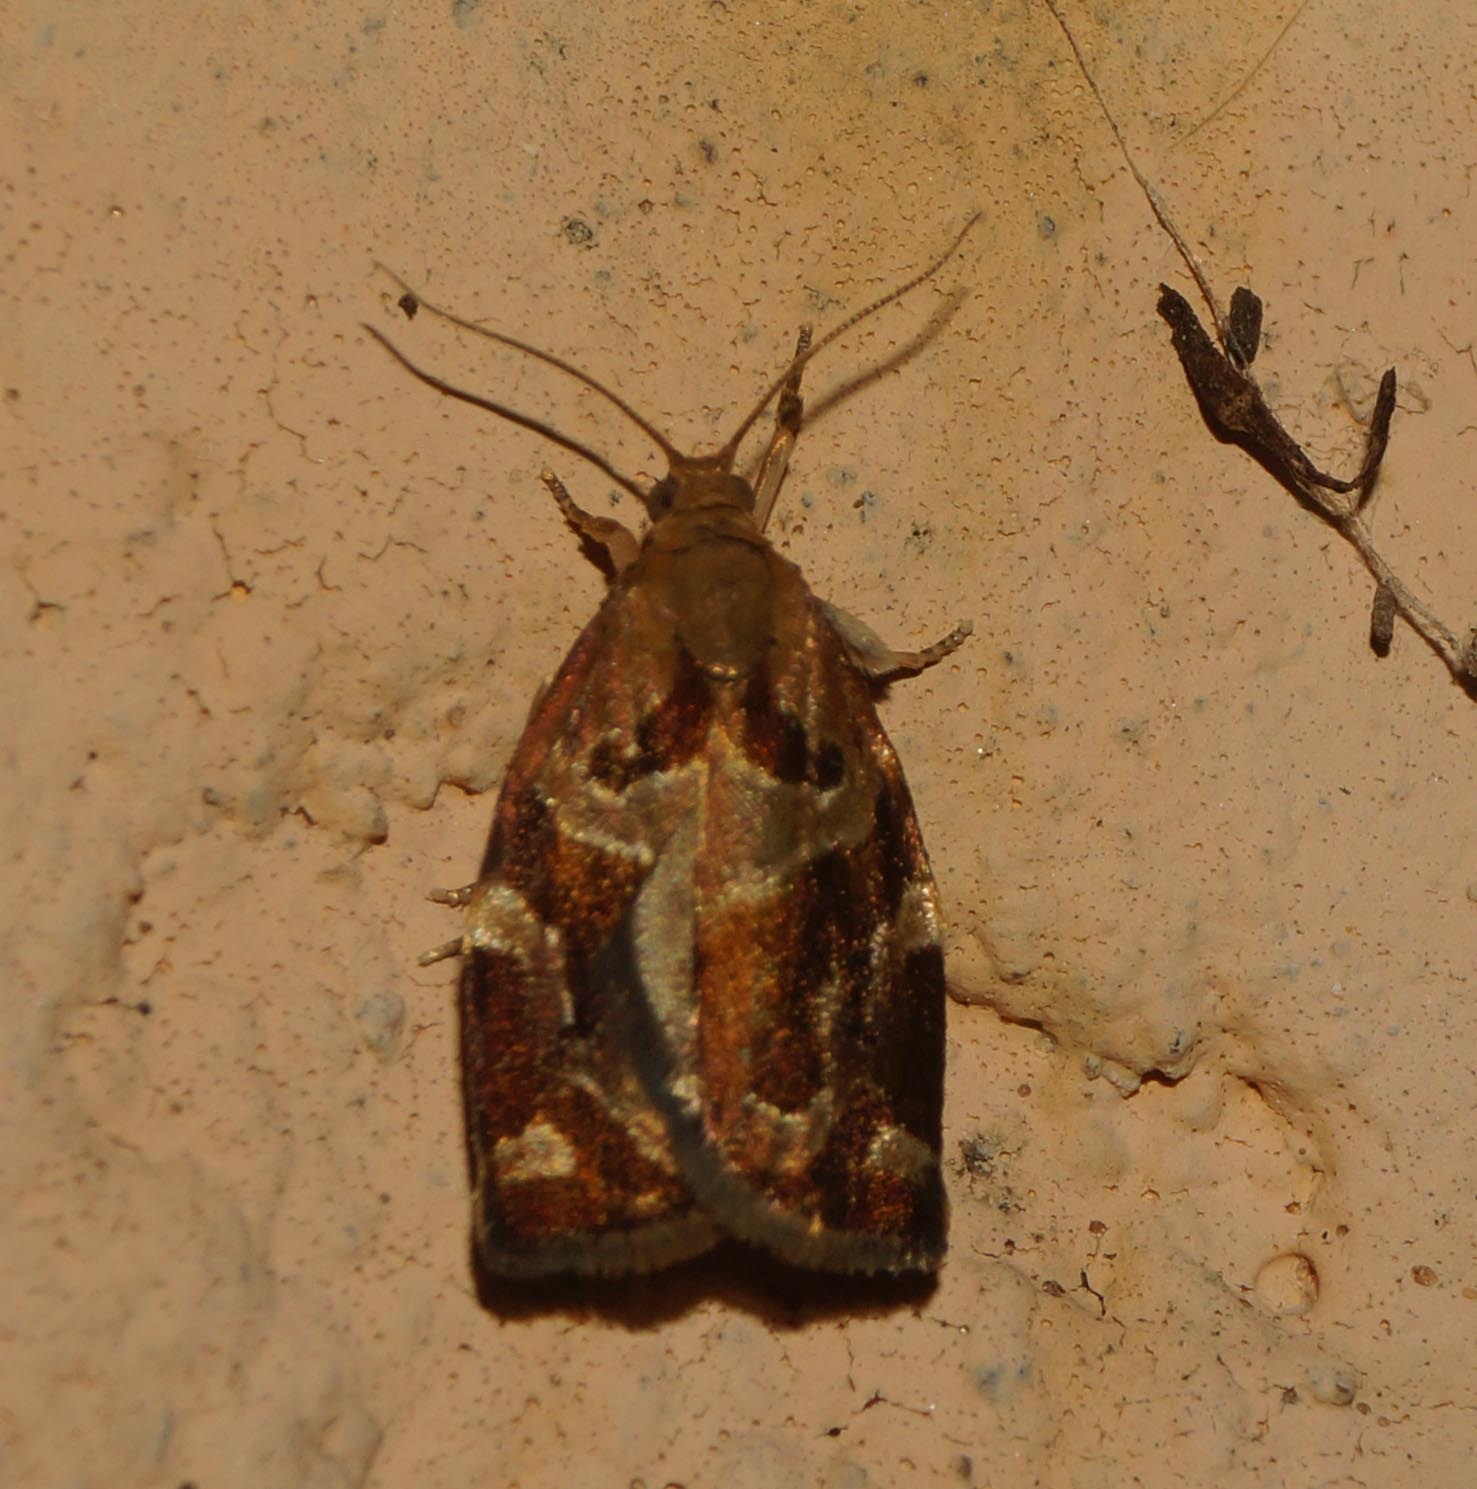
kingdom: Animalia
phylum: Arthropoda
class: Insecta
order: Lepidoptera
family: Tortricidae
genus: Archips
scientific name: Archips xylosteana
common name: Variegated golden tortrix
